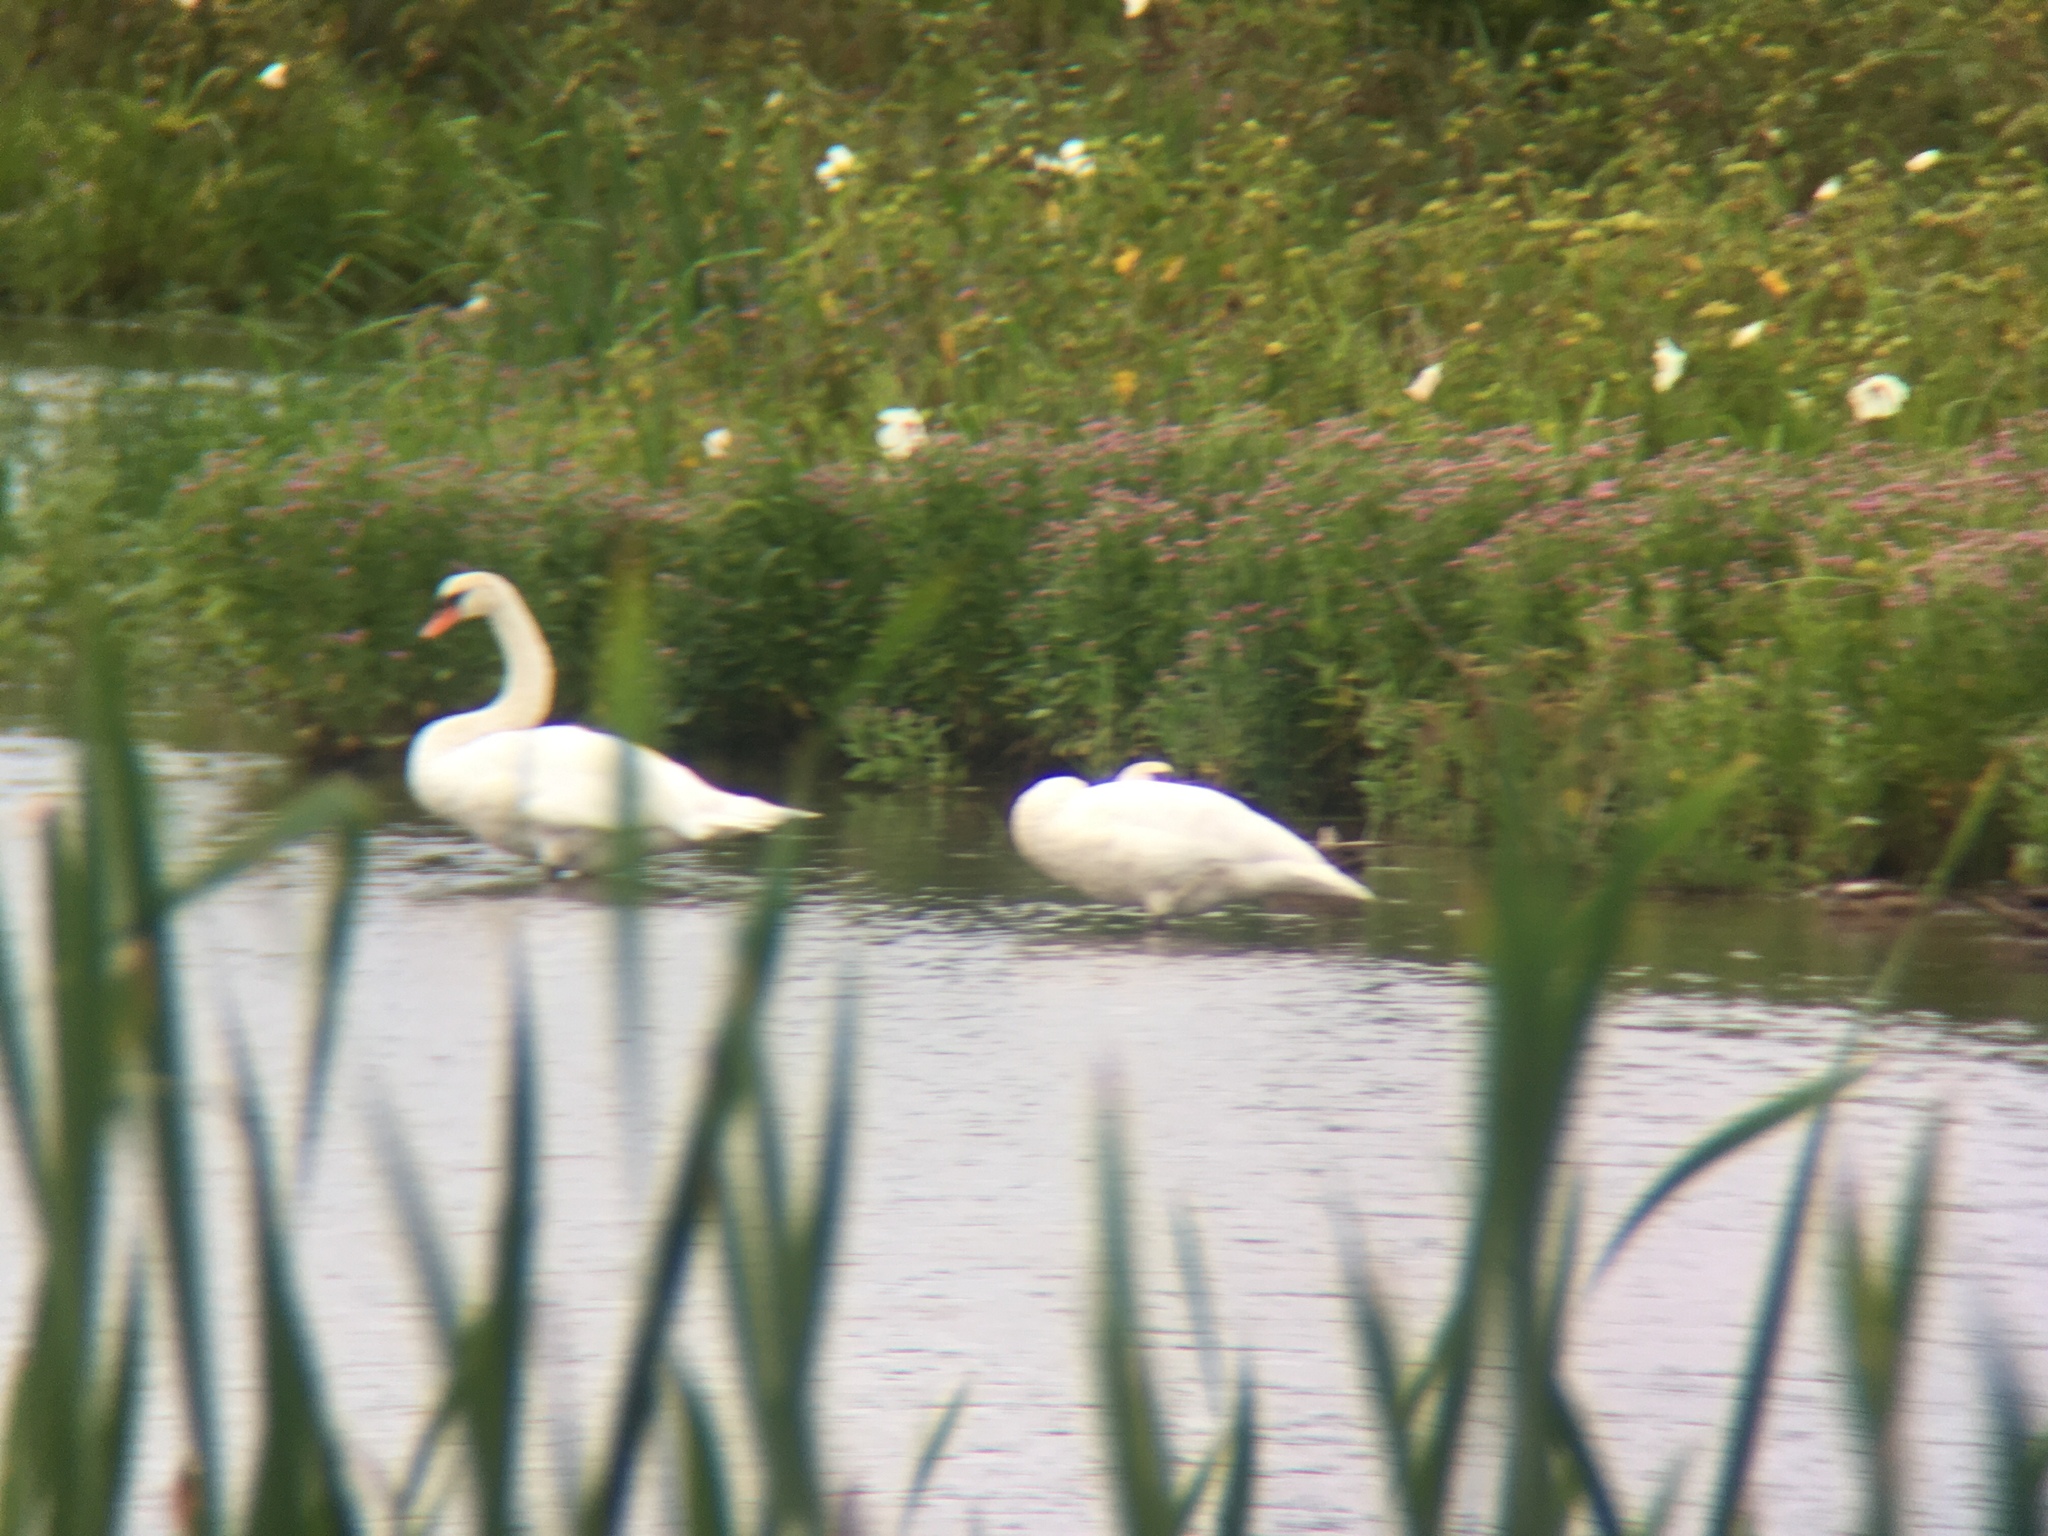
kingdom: Animalia
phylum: Chordata
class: Aves
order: Anseriformes
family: Anatidae
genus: Cygnus
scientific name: Cygnus olor
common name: Mute swan
